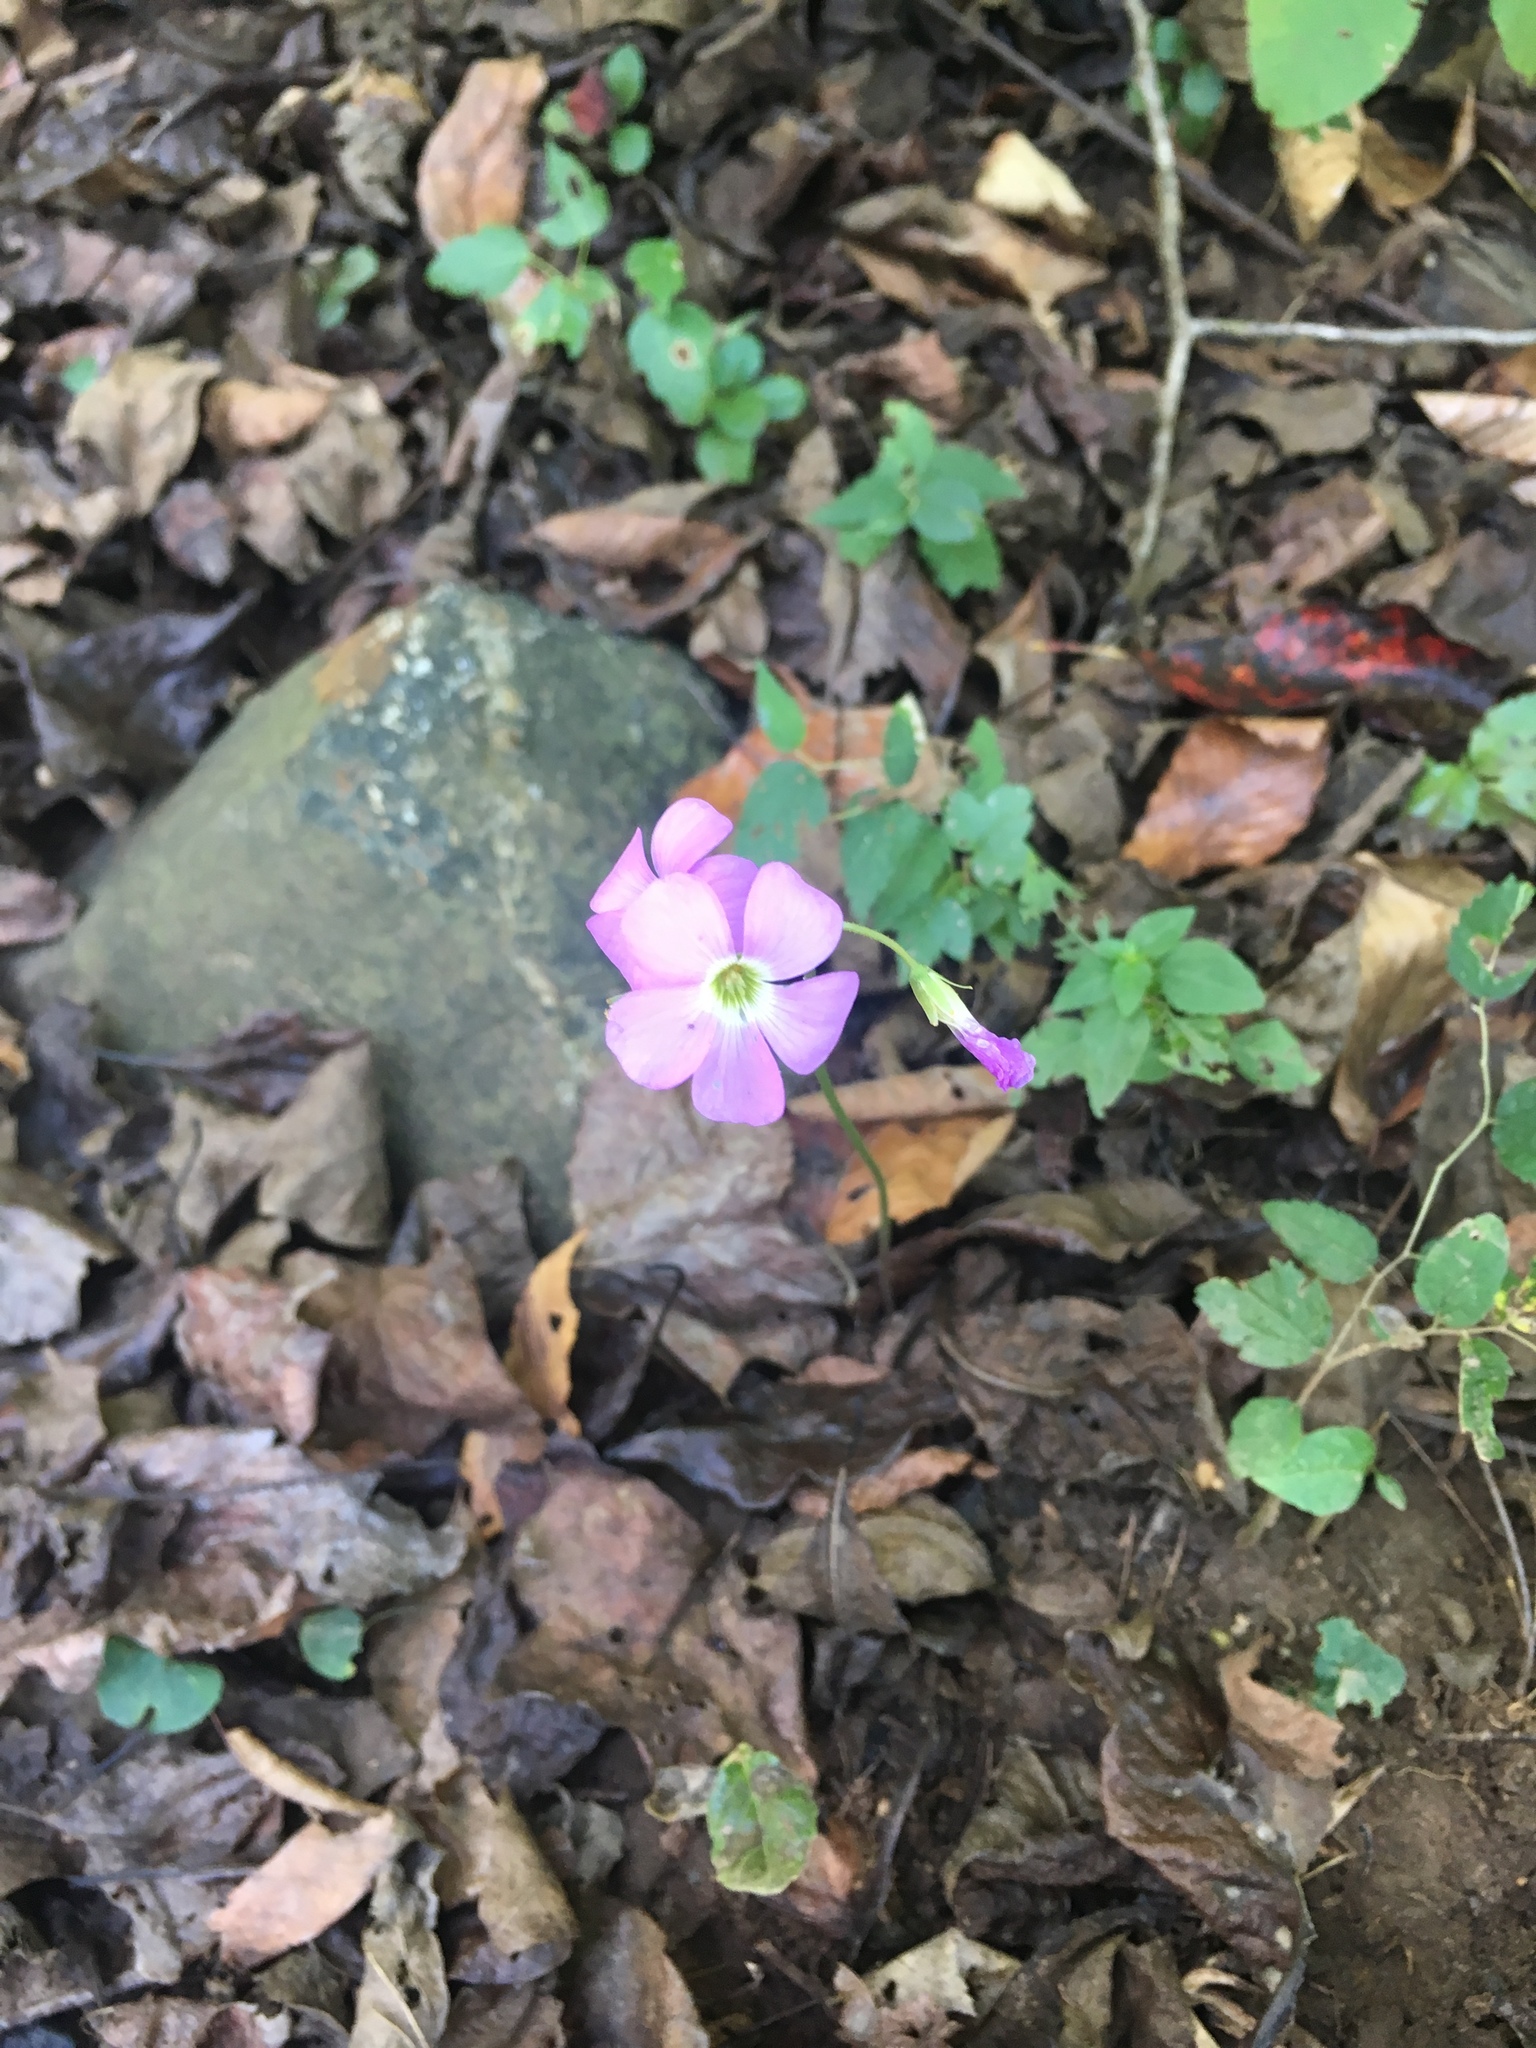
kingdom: Plantae
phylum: Tracheophyta
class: Magnoliopsida
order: Oxalidales
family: Oxalidaceae
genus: Oxalis
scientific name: Oxalis violacea
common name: Violet wood-sorrel
